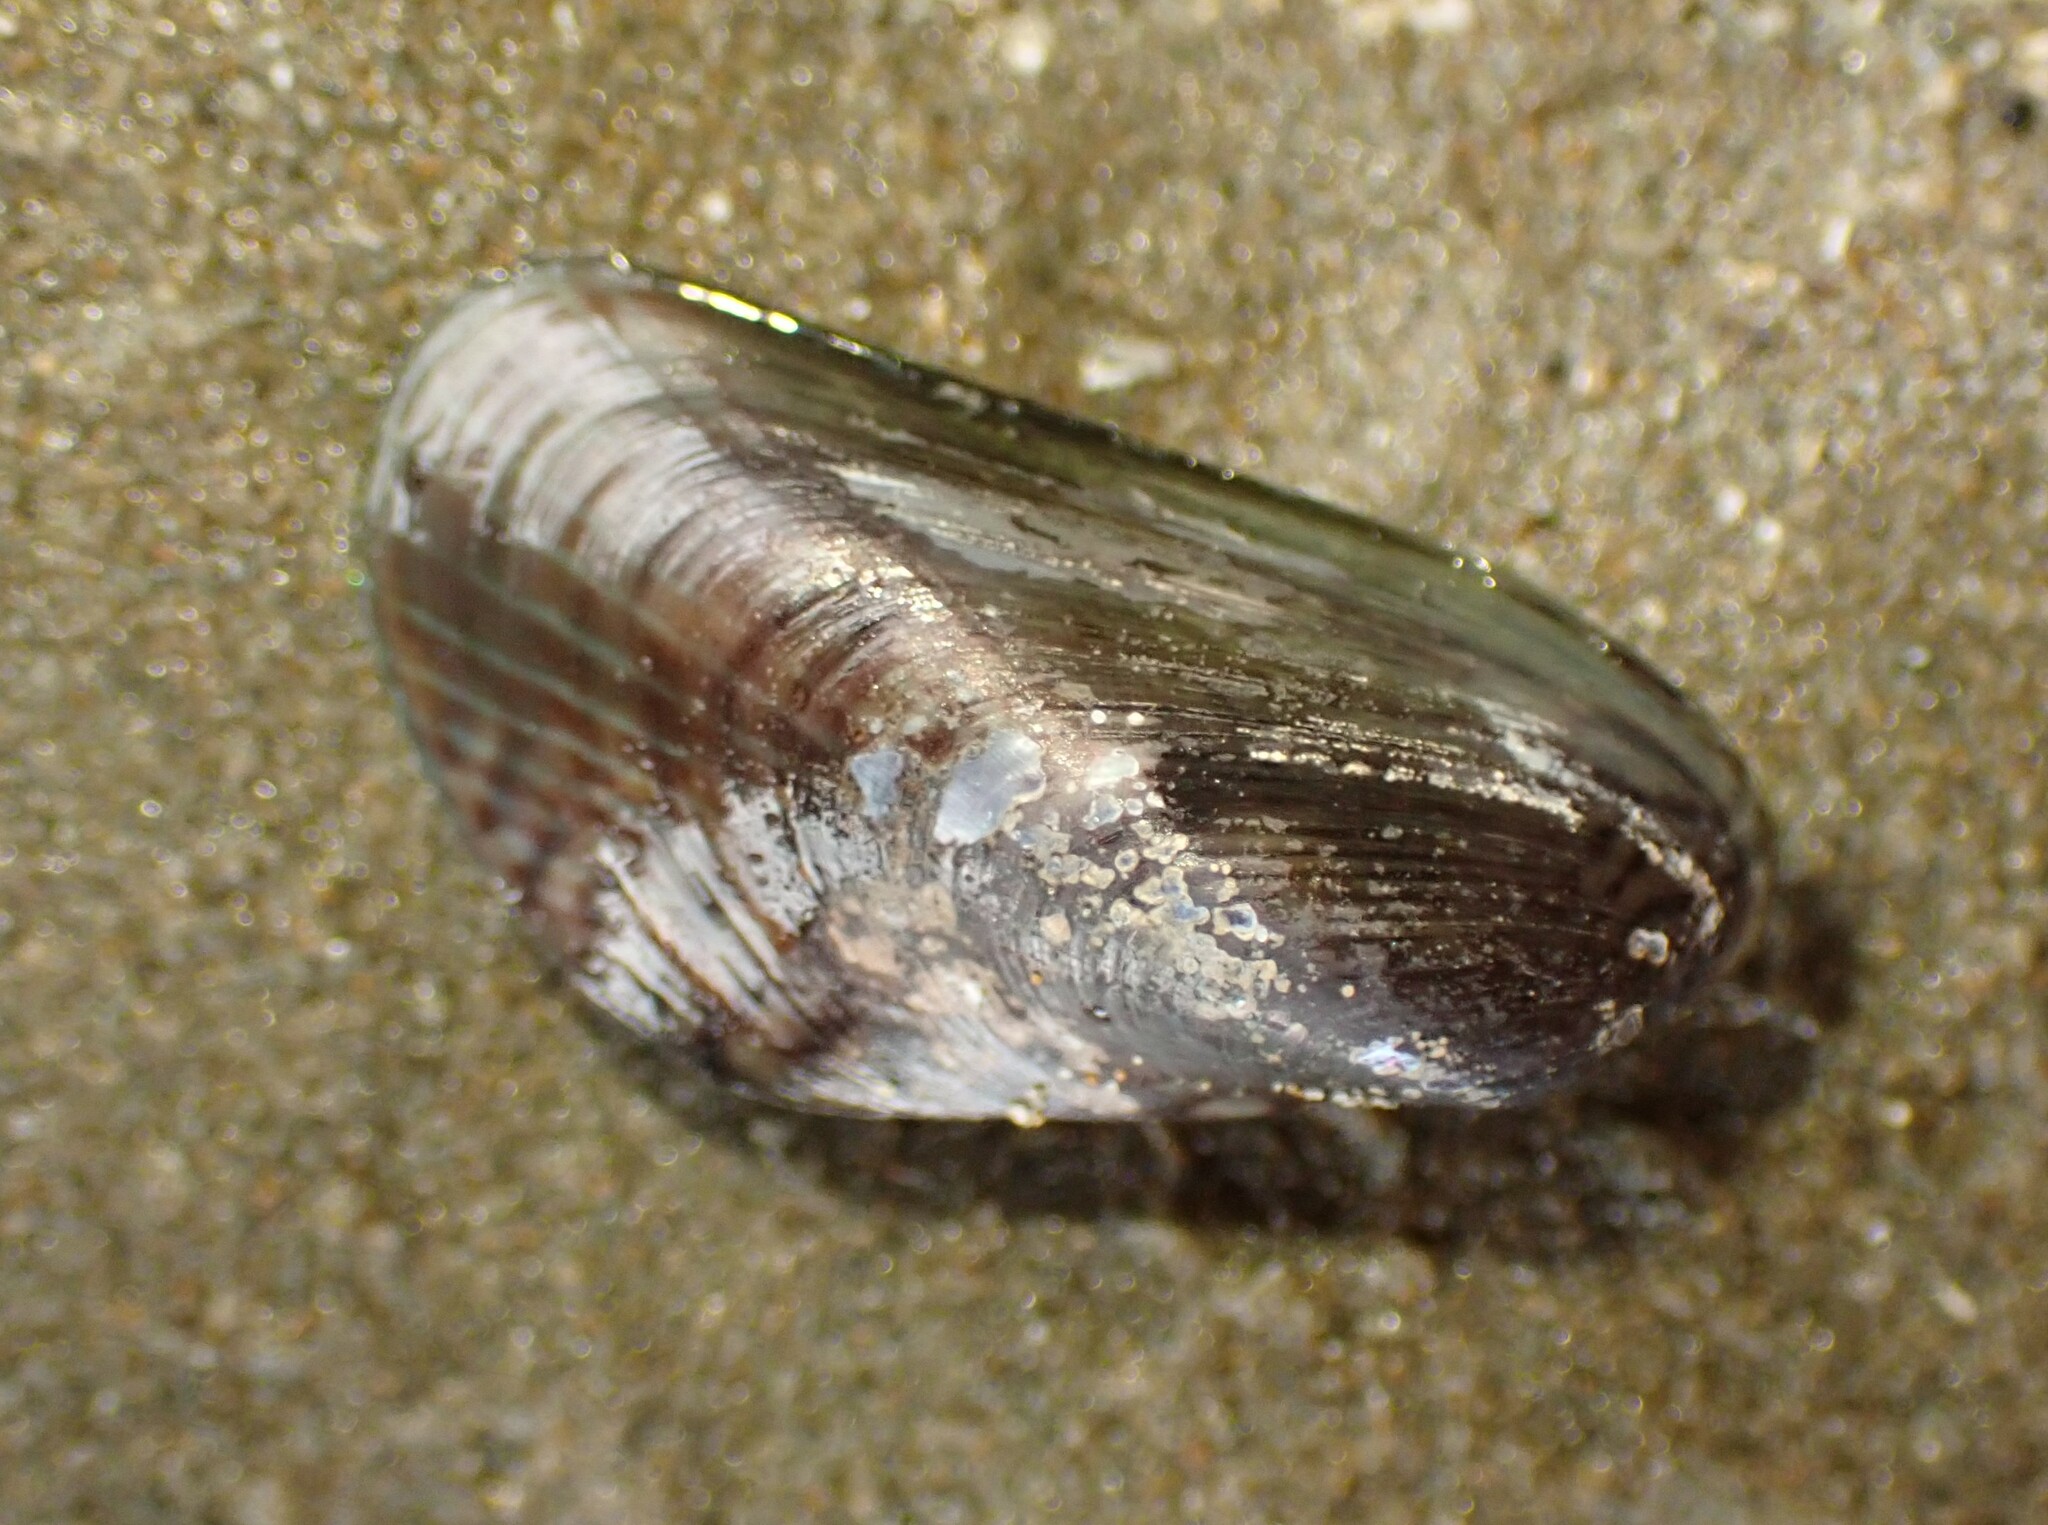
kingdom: Animalia
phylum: Mollusca
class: Bivalvia
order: Mytilida
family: Mytilidae
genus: Arcuatula
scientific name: Arcuatula senhousia
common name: Asian mussel
